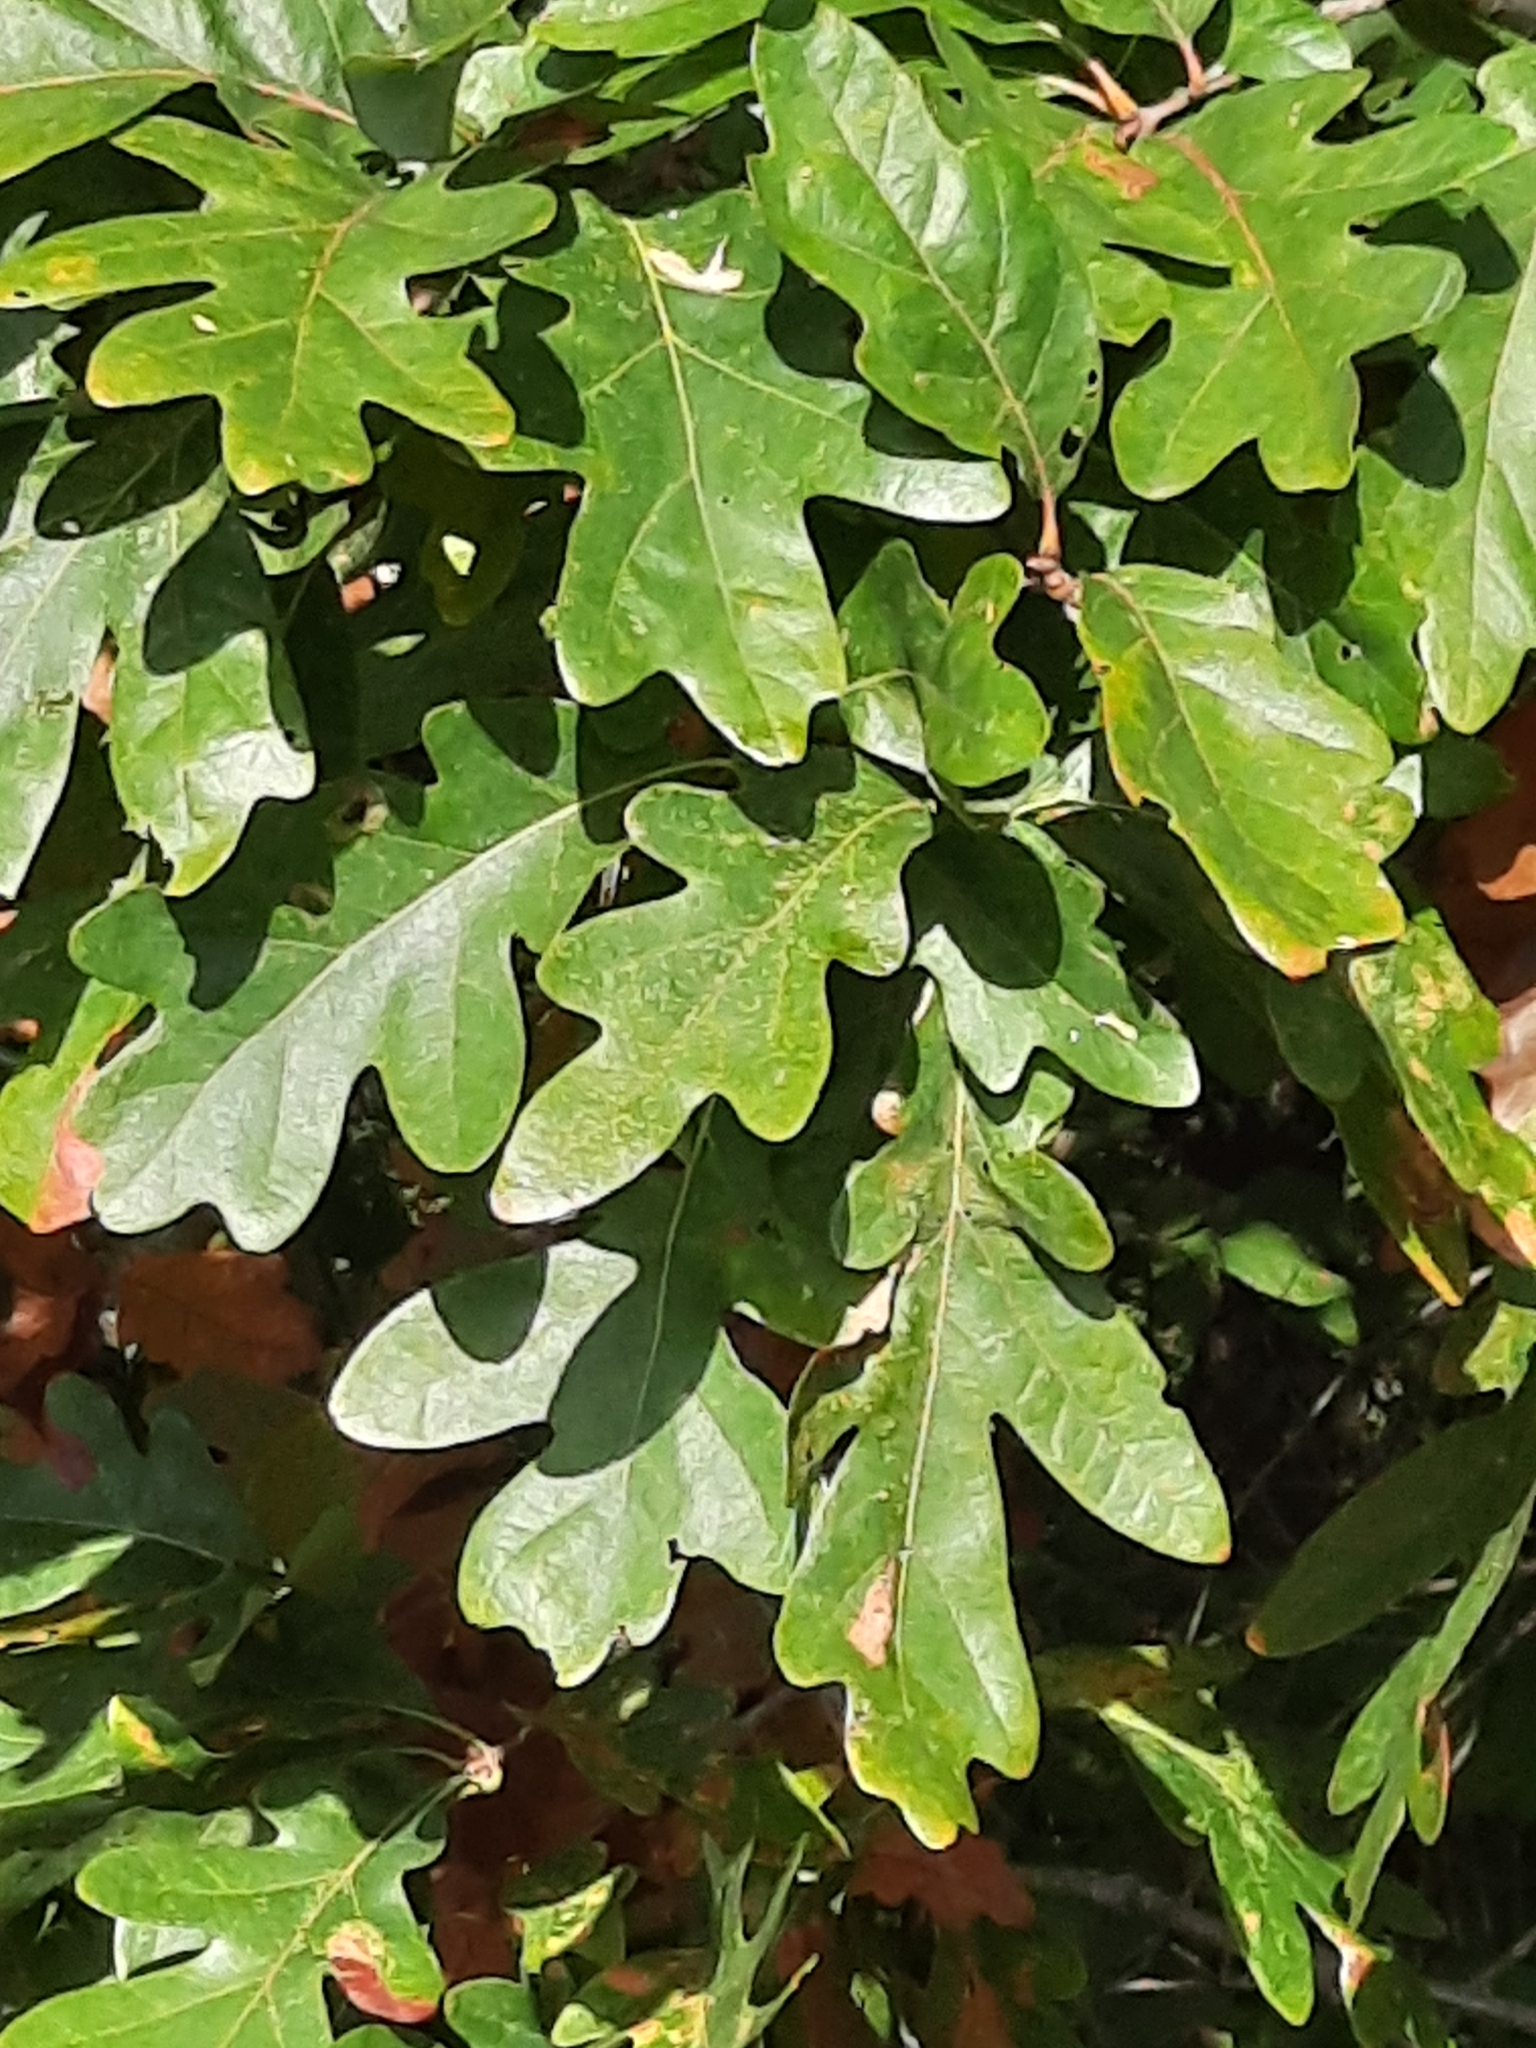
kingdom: Plantae
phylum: Tracheophyta
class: Magnoliopsida
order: Fagales
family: Fagaceae
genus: Quercus
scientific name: Quercus alba
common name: White oak
